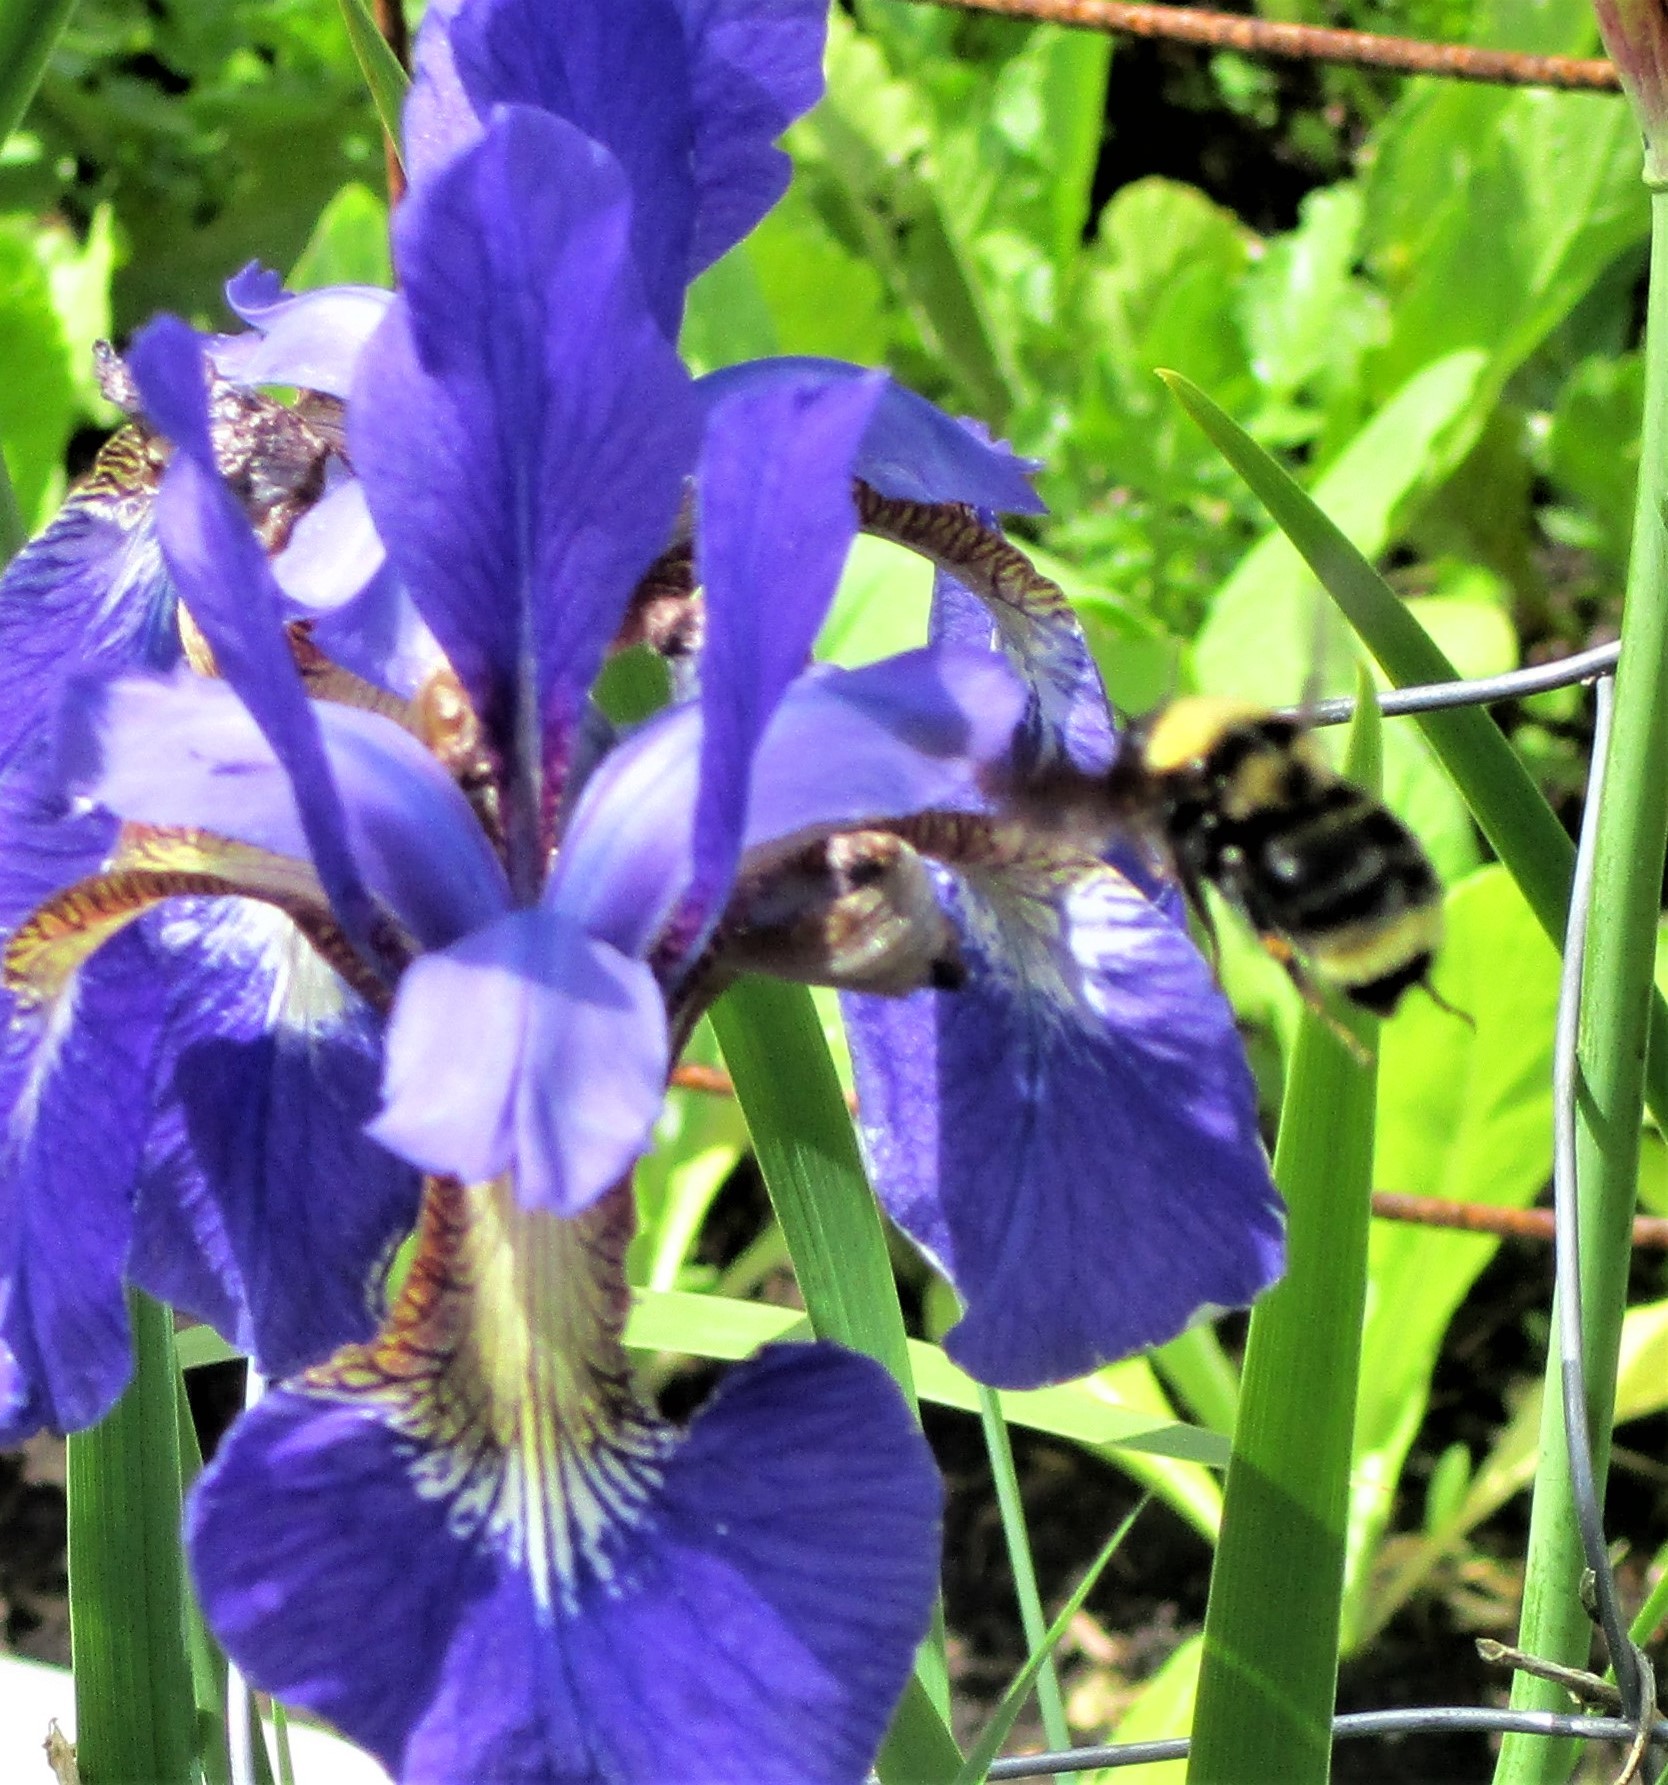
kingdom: Animalia
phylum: Arthropoda
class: Insecta
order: Hymenoptera
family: Apidae
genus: Bombus
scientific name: Bombus californicus
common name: California bumble bee
